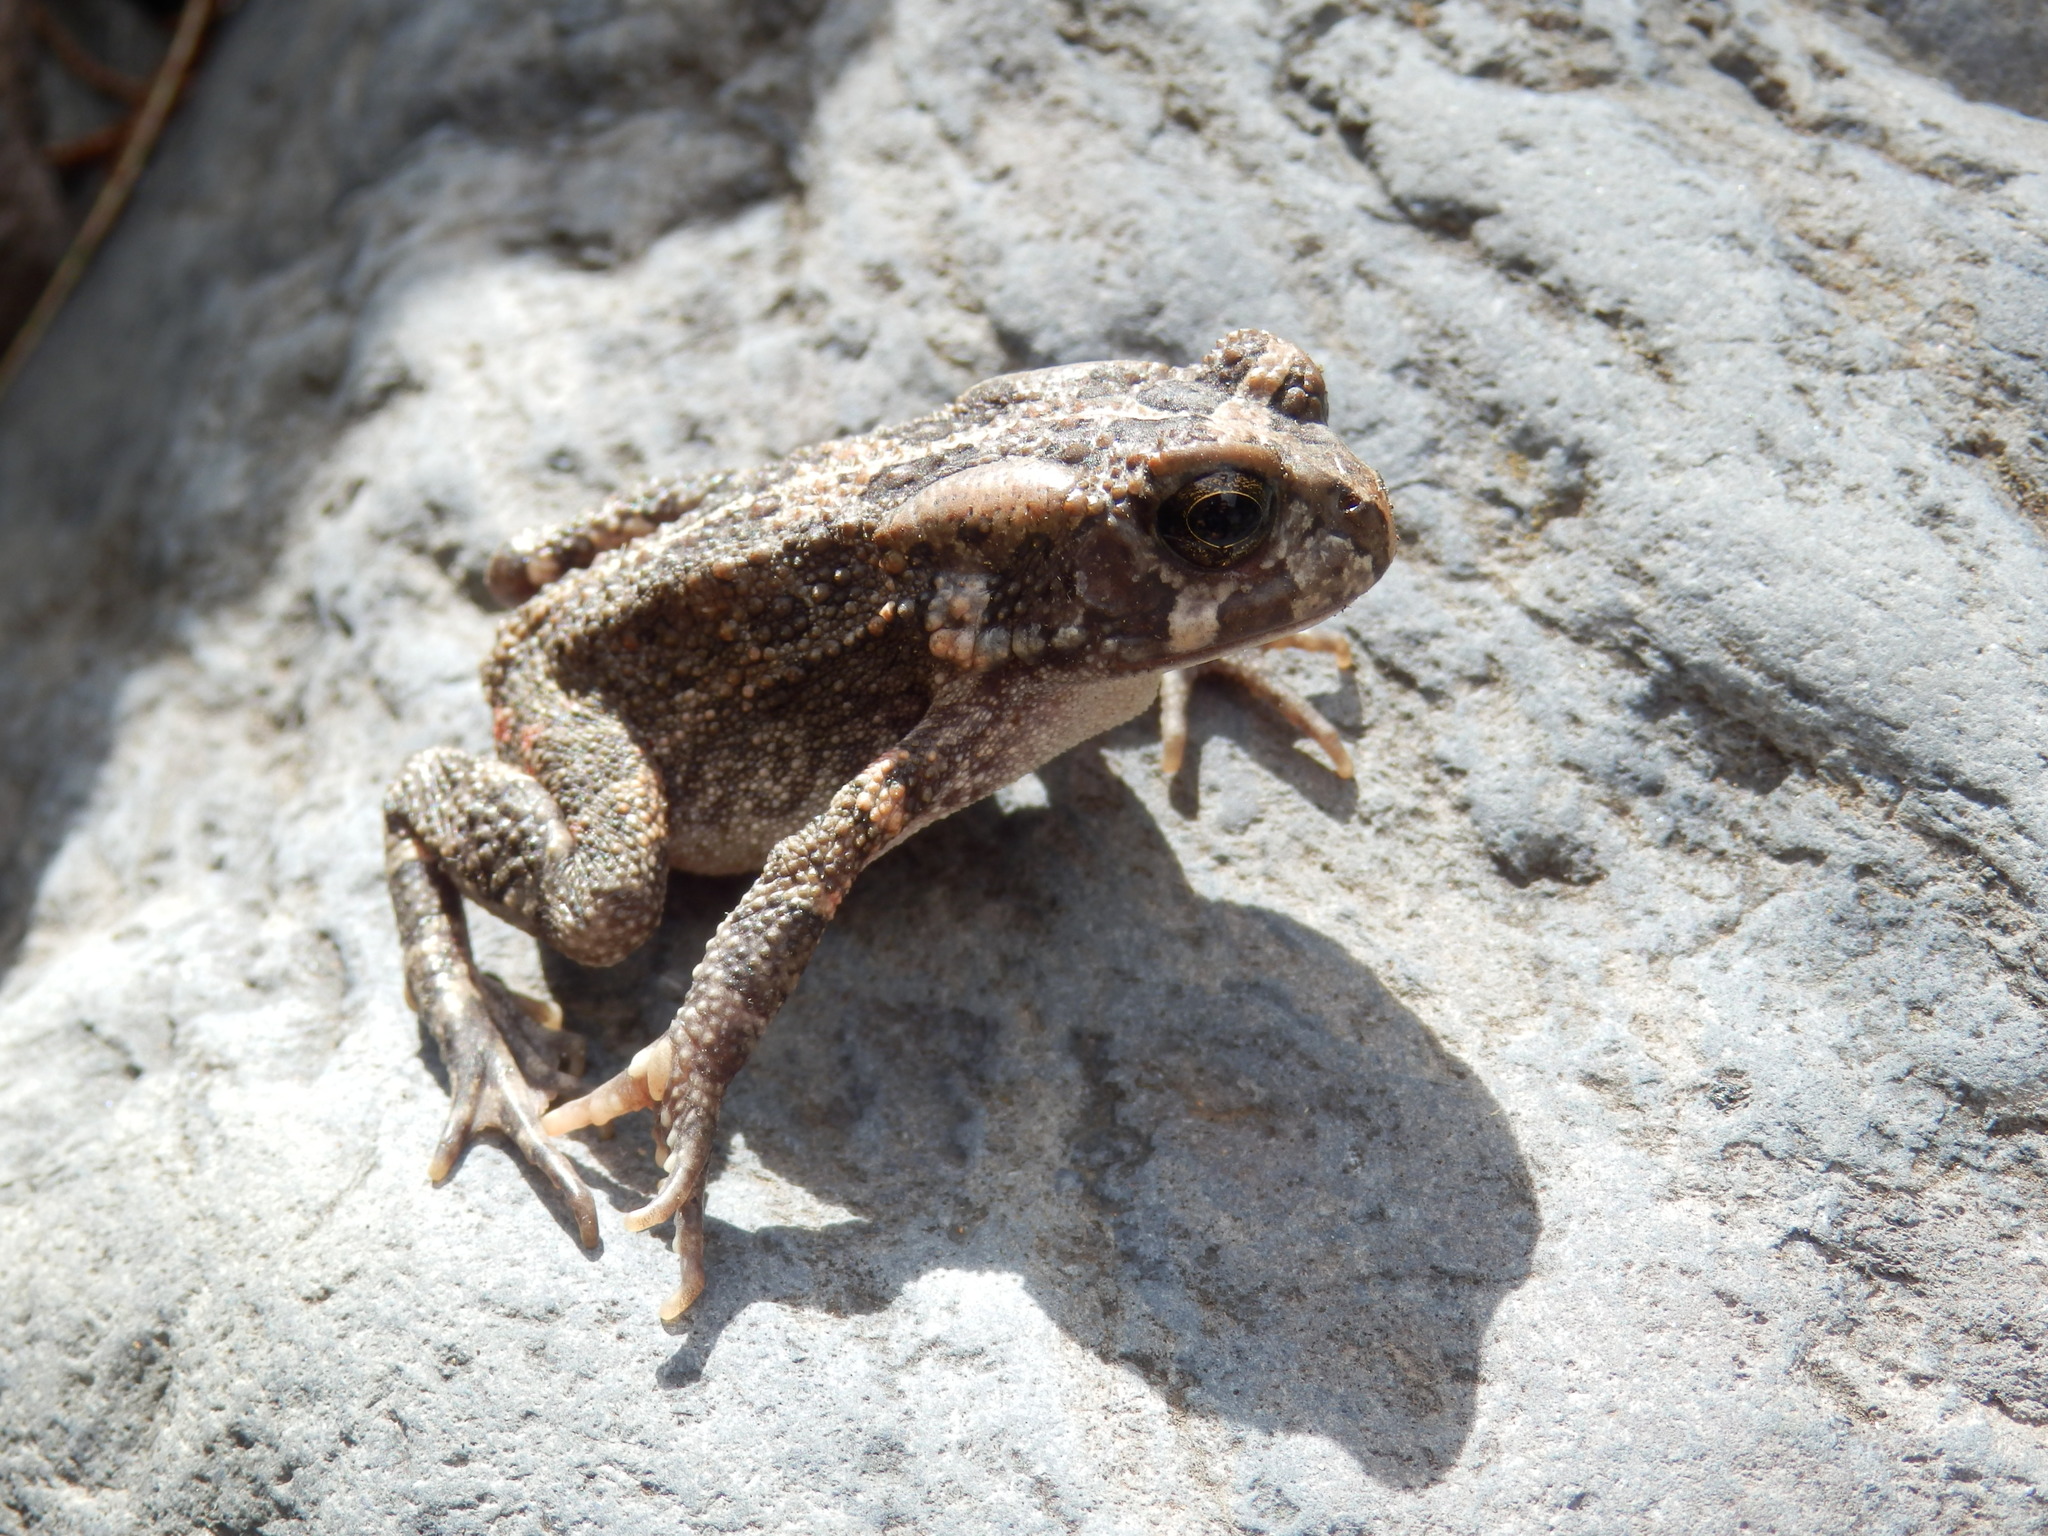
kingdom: Animalia
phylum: Chordata
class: Amphibia
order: Anura
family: Bufonidae
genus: Sclerophrys
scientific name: Sclerophrys gutturalis
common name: African common toad
